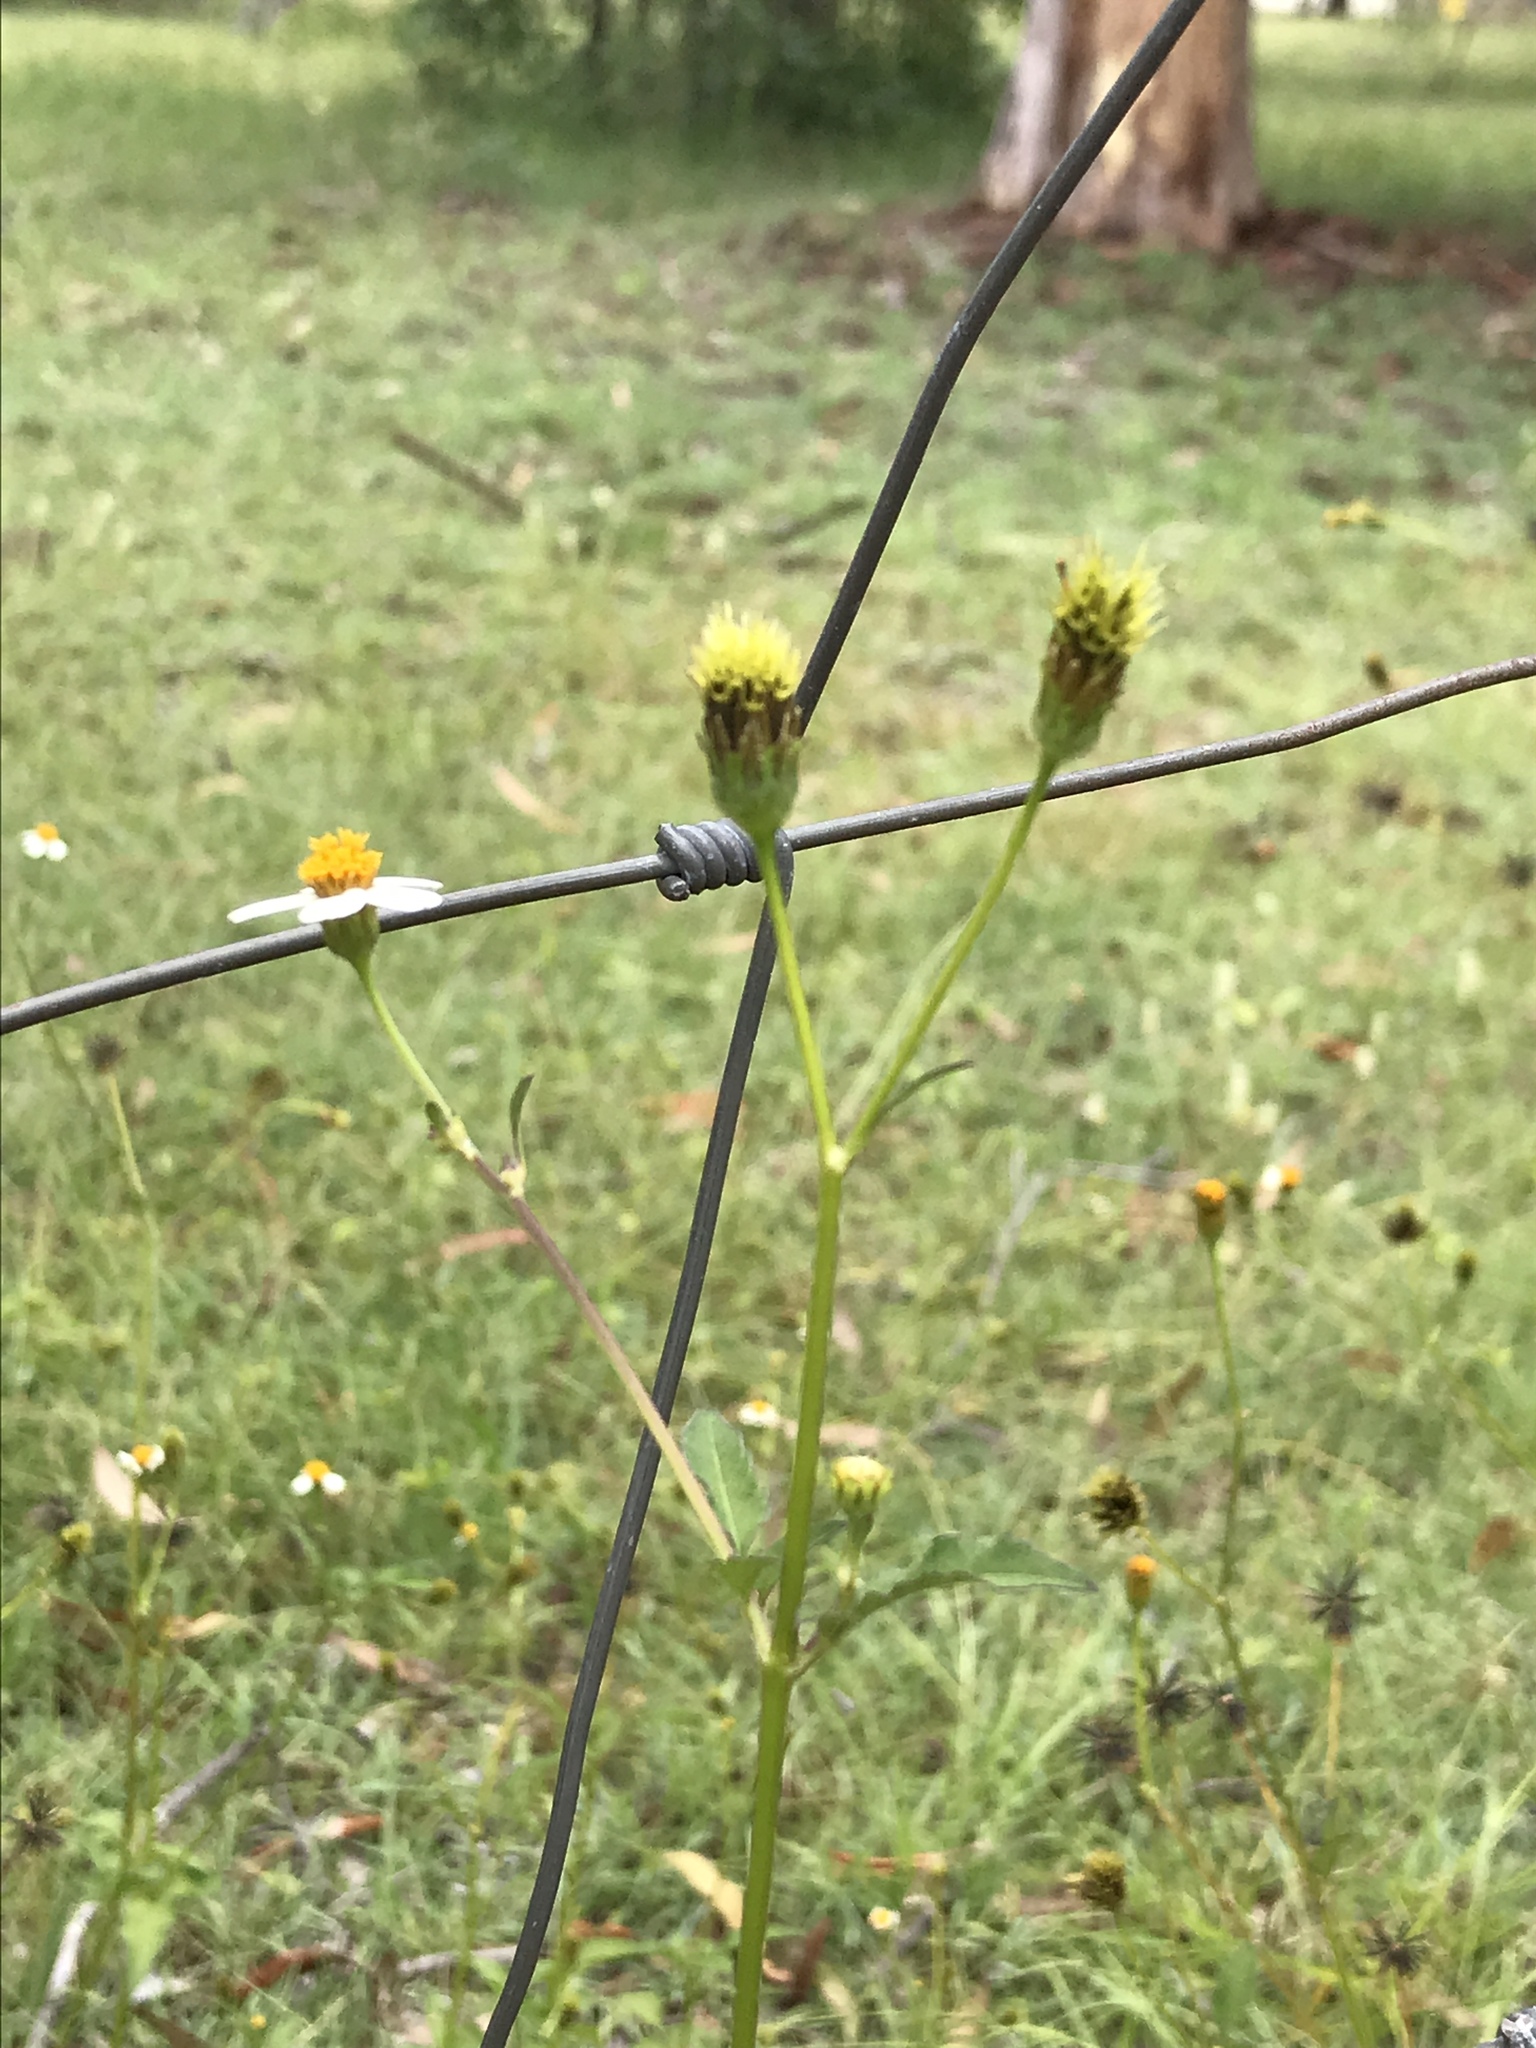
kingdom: Plantae
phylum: Tracheophyta
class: Magnoliopsida
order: Asterales
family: Asteraceae
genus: Bidens
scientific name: Bidens pilosa
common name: Black-jack
